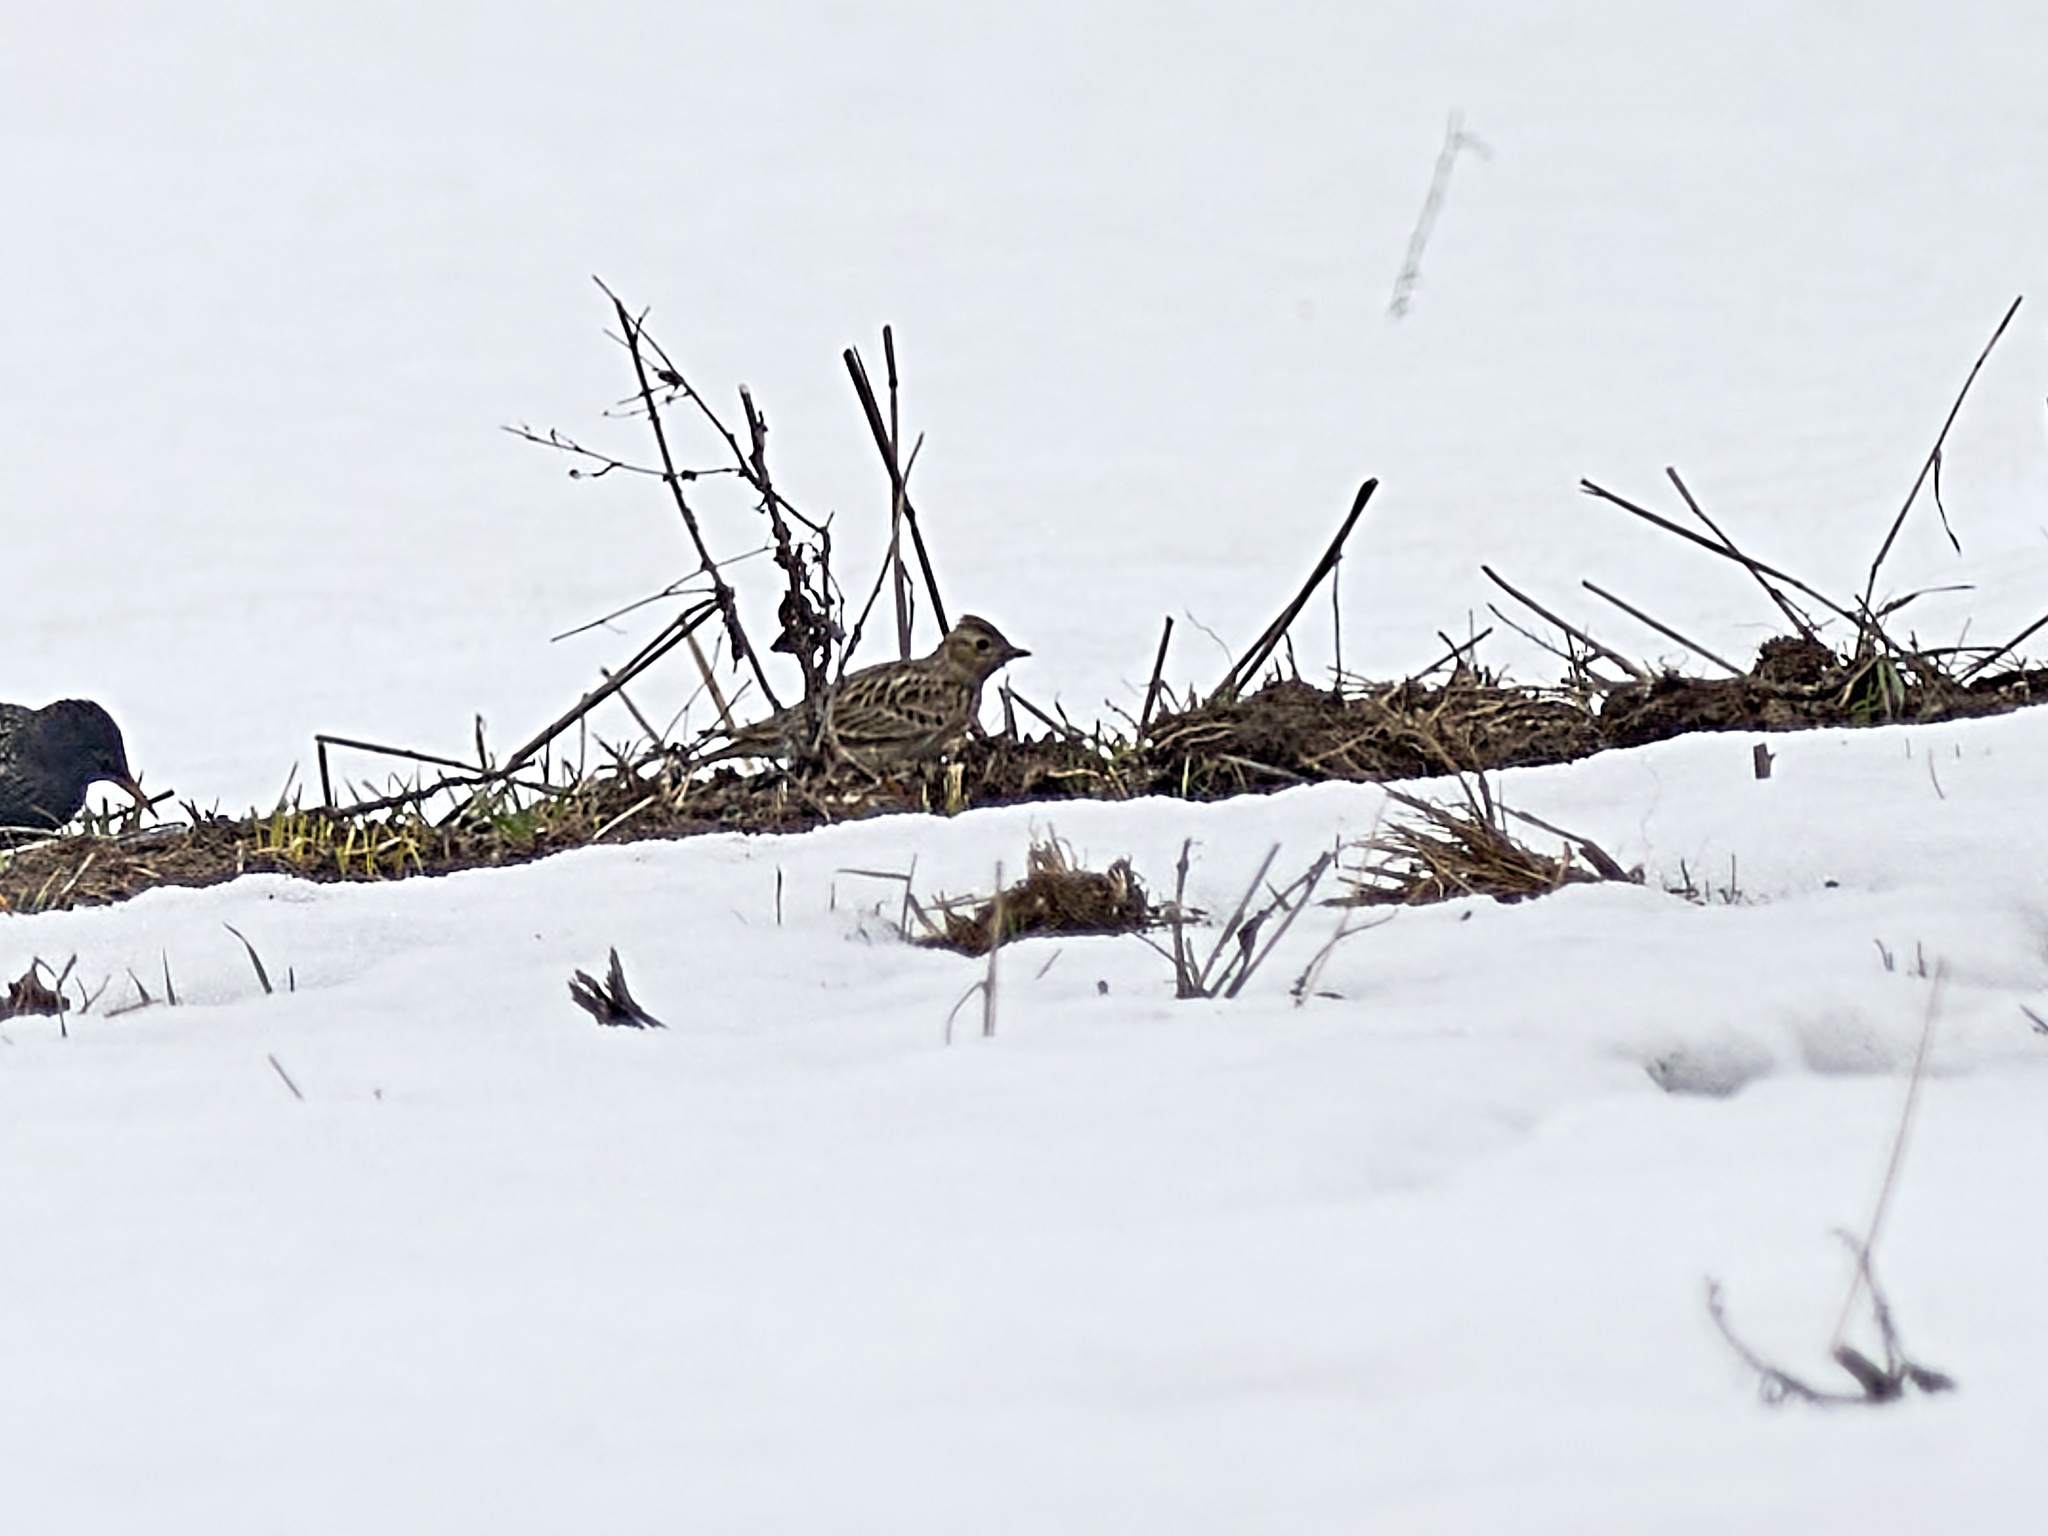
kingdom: Animalia
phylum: Chordata
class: Aves
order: Passeriformes
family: Alaudidae
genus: Alauda
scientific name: Alauda arvensis
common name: Eurasian skylark
